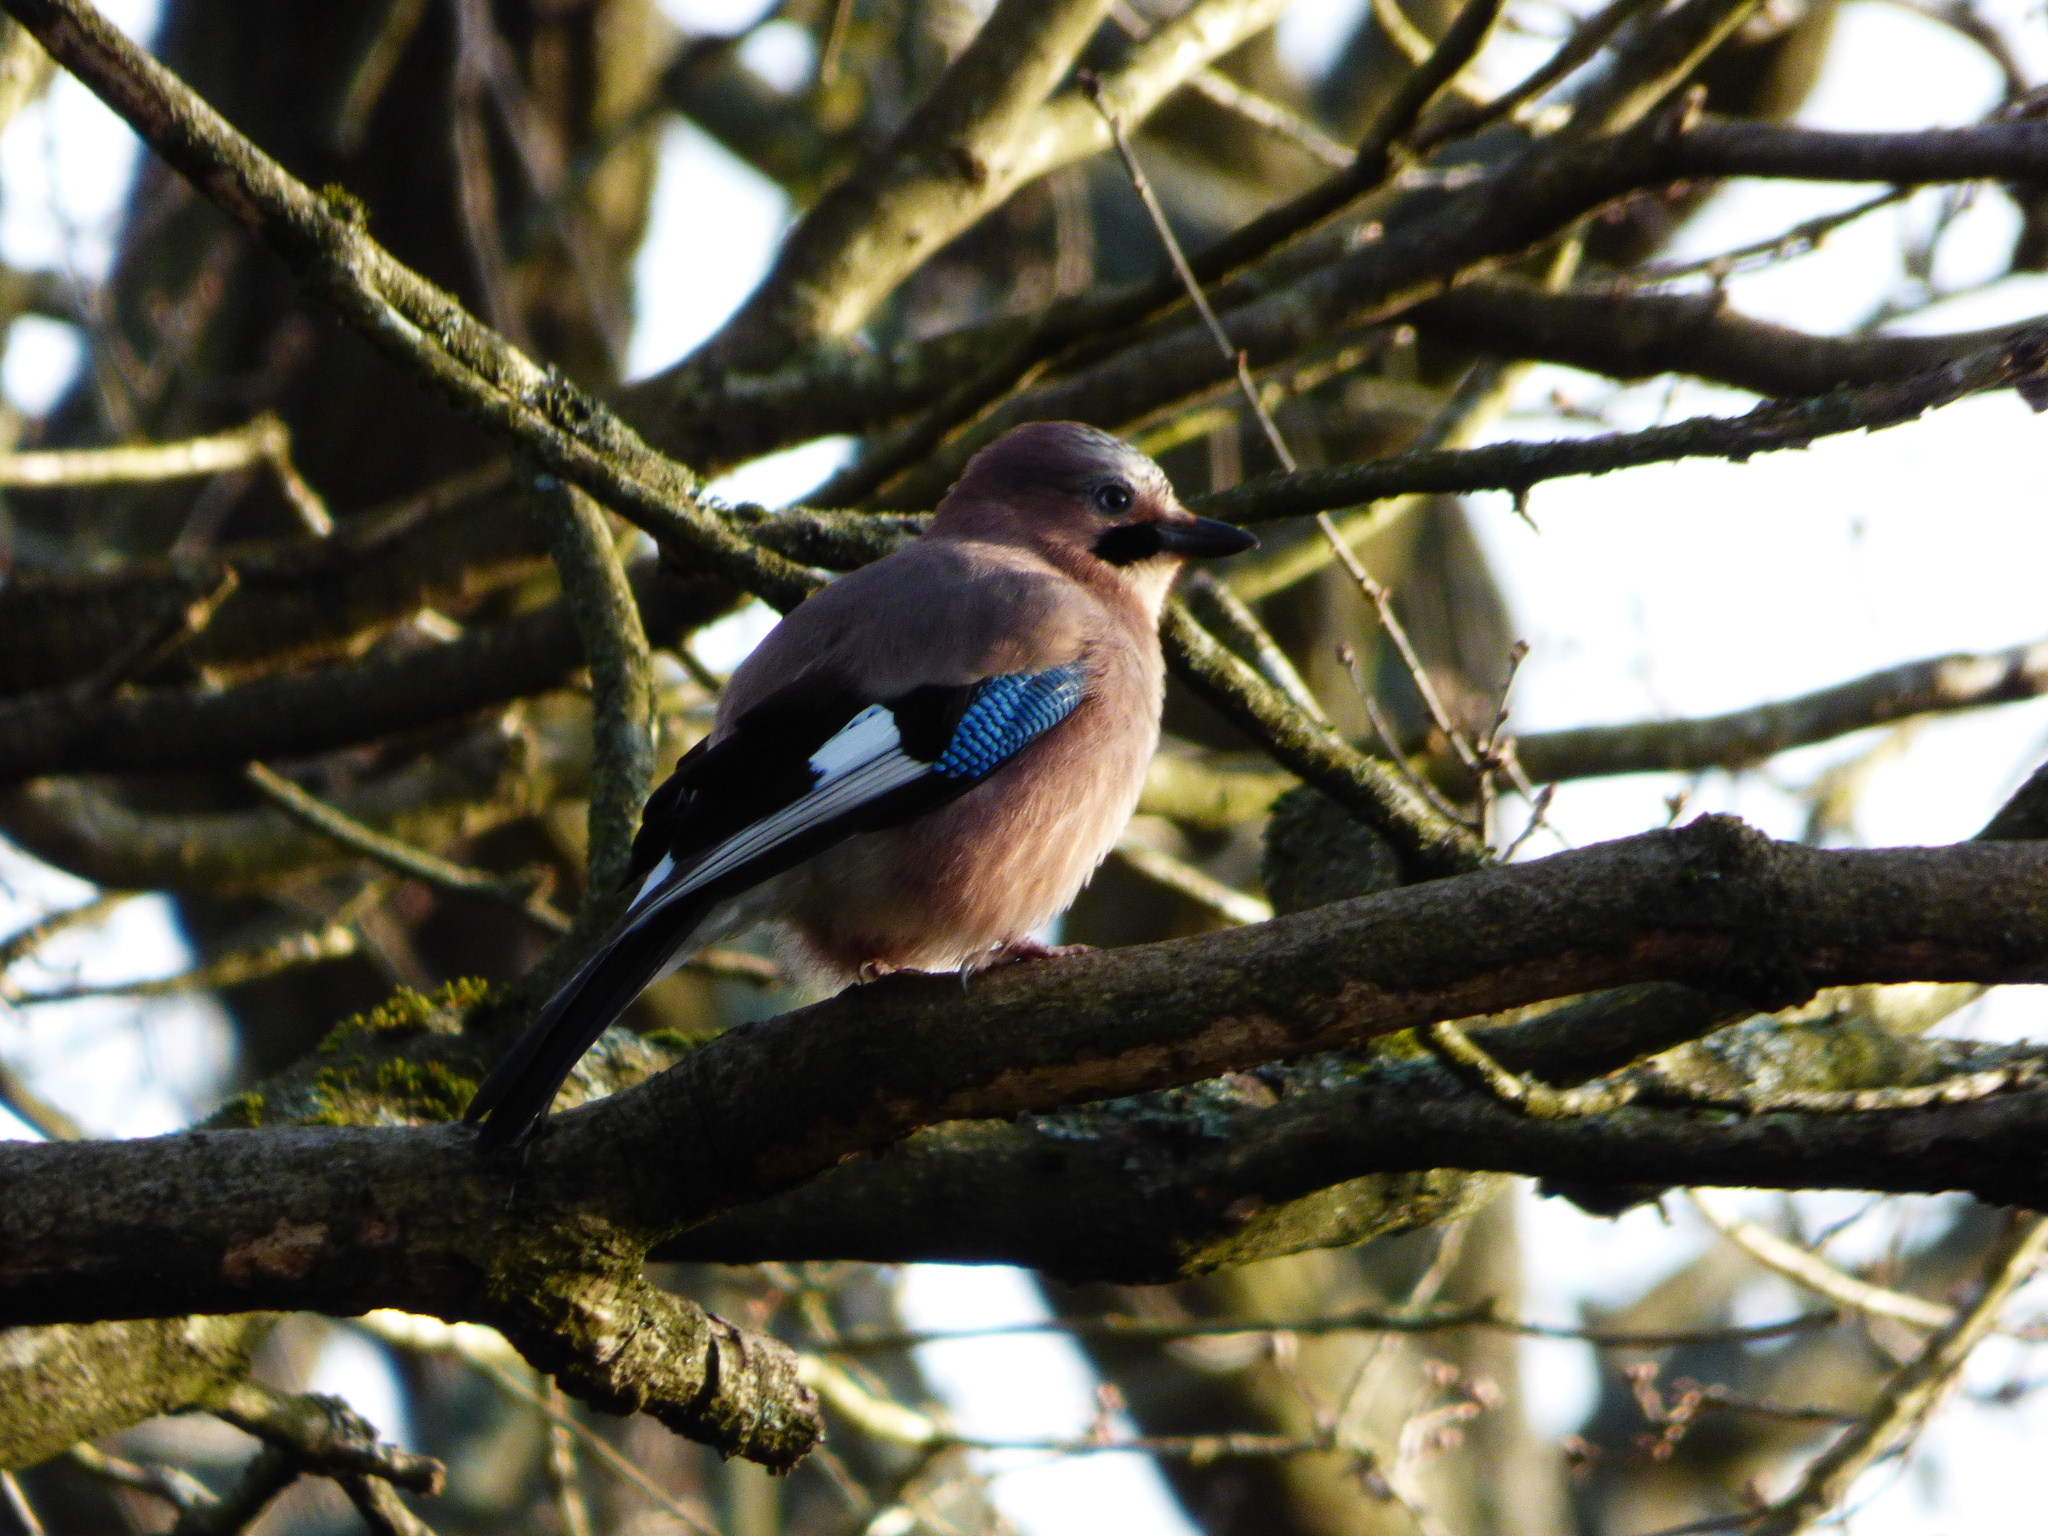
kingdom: Animalia
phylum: Chordata
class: Aves
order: Passeriformes
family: Corvidae
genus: Garrulus
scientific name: Garrulus glandarius
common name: Eurasian jay
